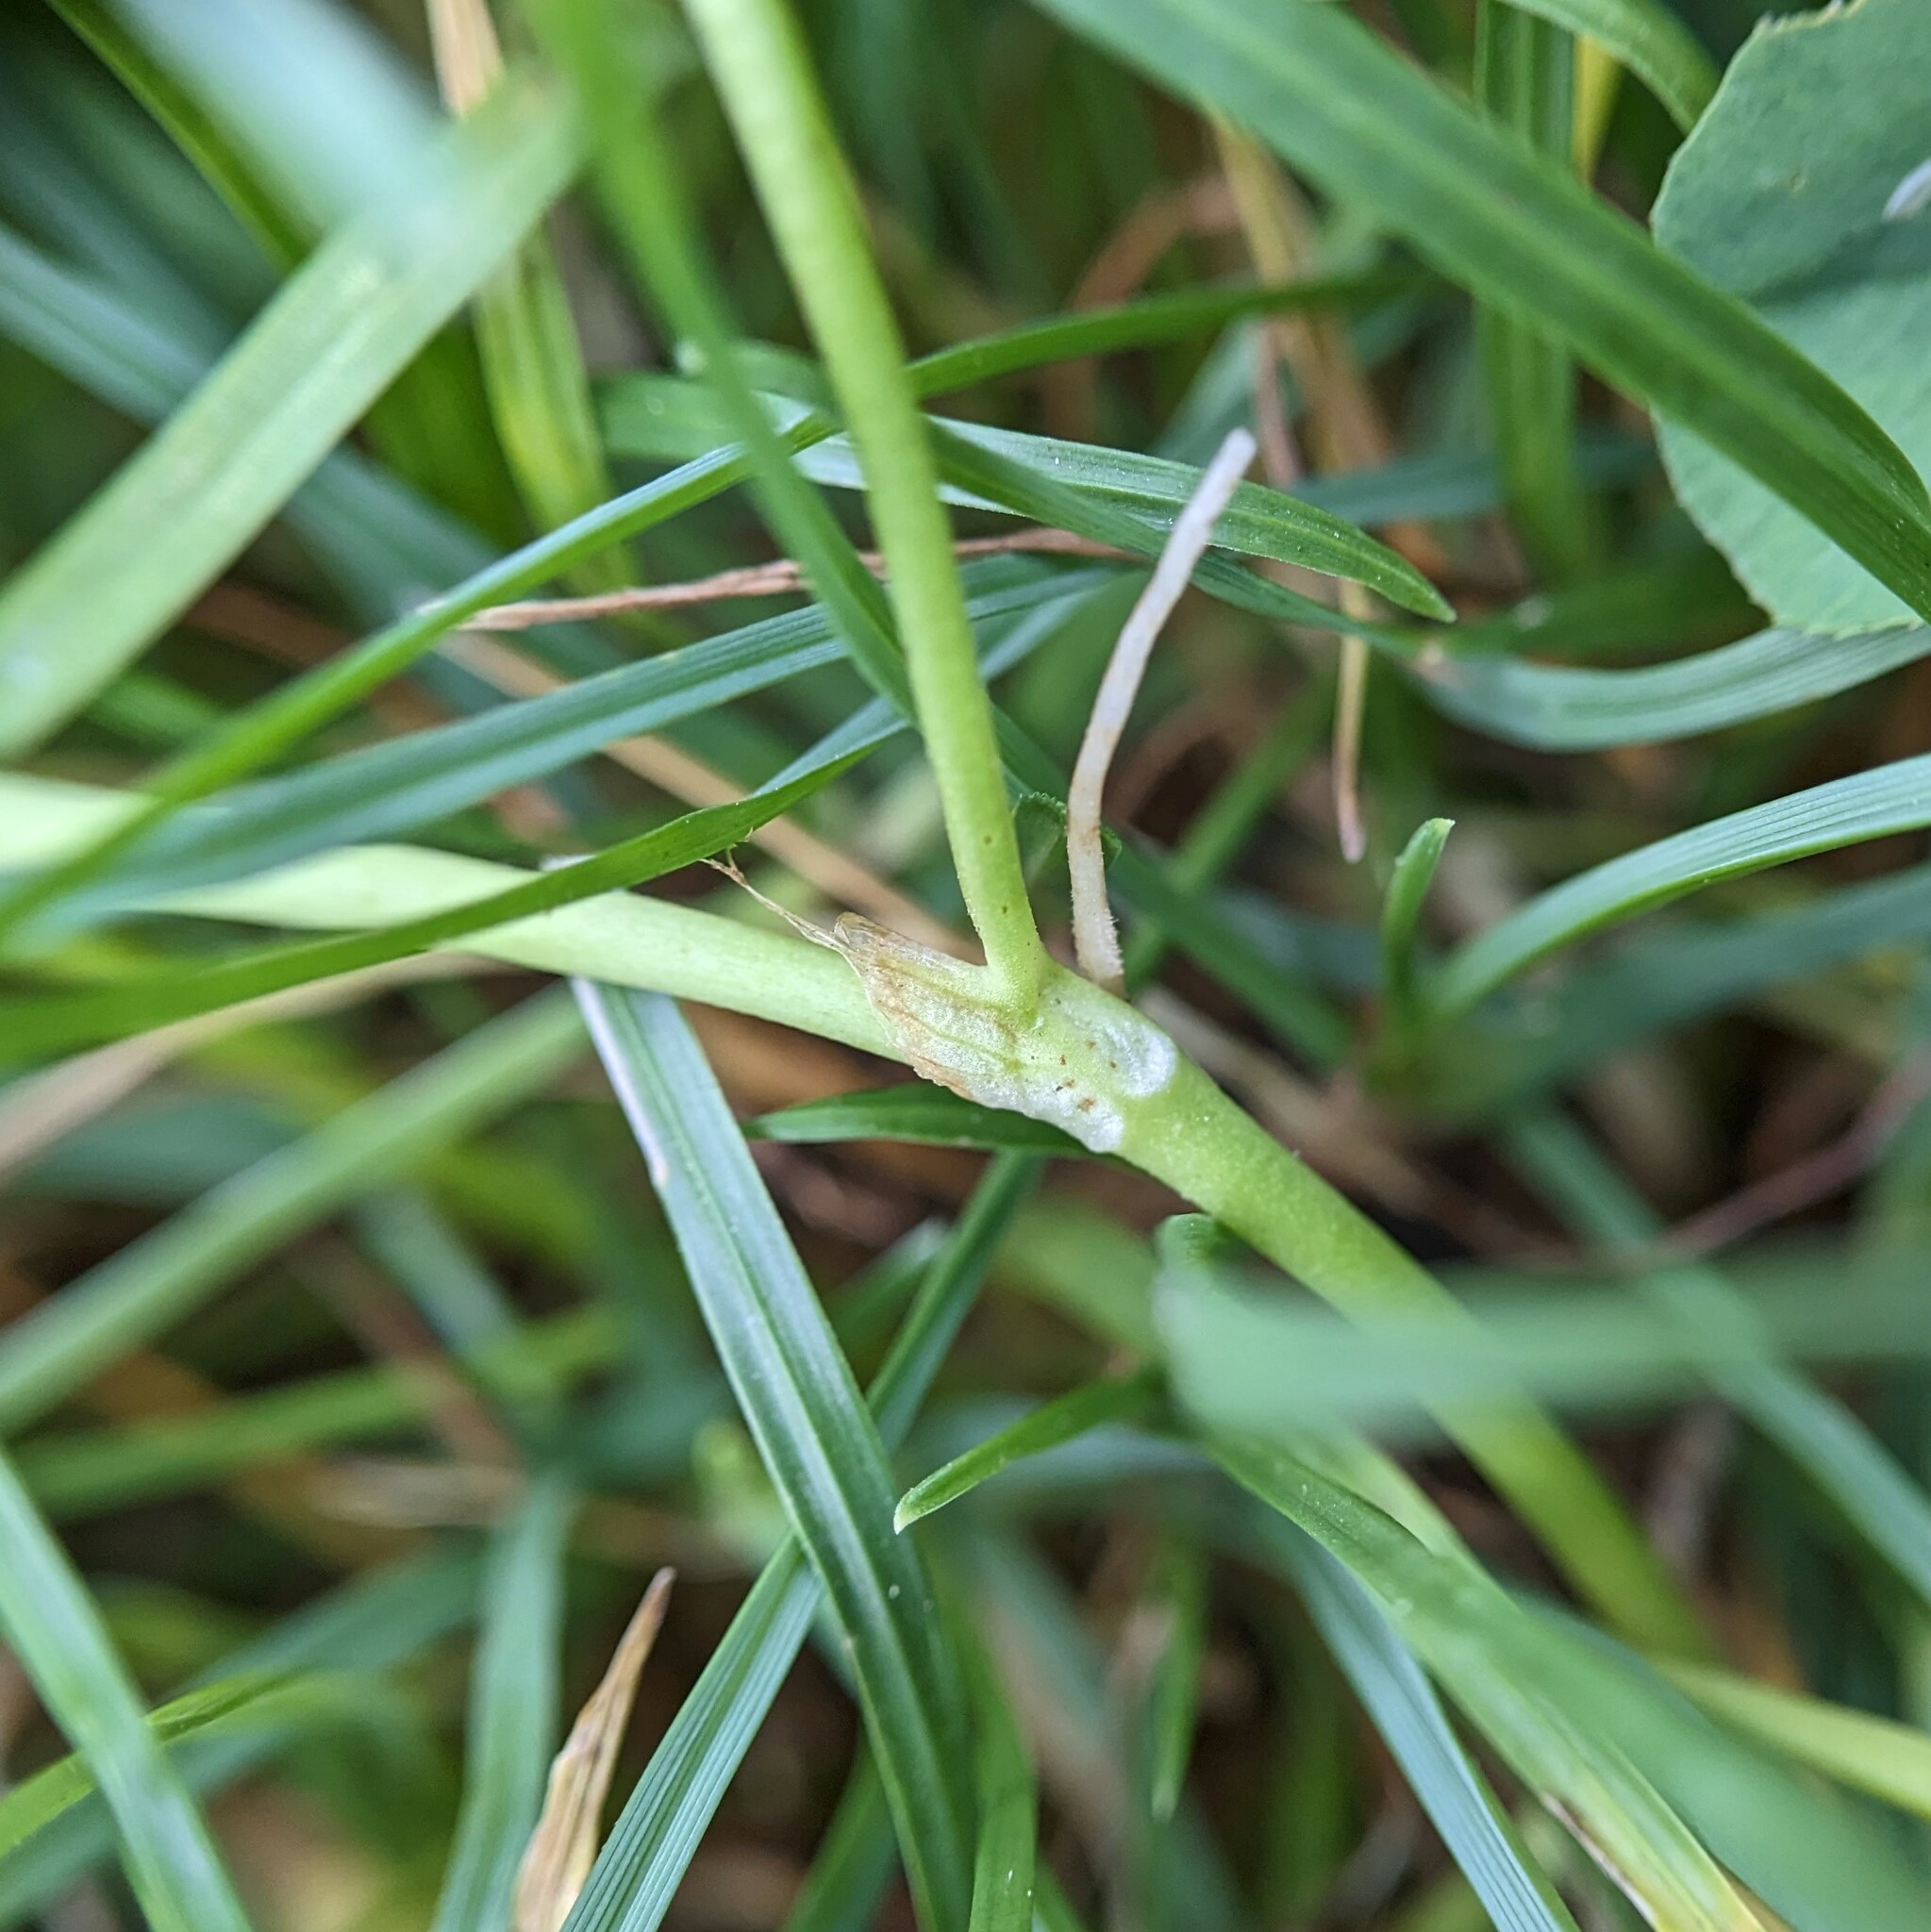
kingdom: Plantae
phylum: Tracheophyta
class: Magnoliopsida
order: Fabales
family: Fabaceae
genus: Trifolium
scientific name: Trifolium repens
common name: White clover
